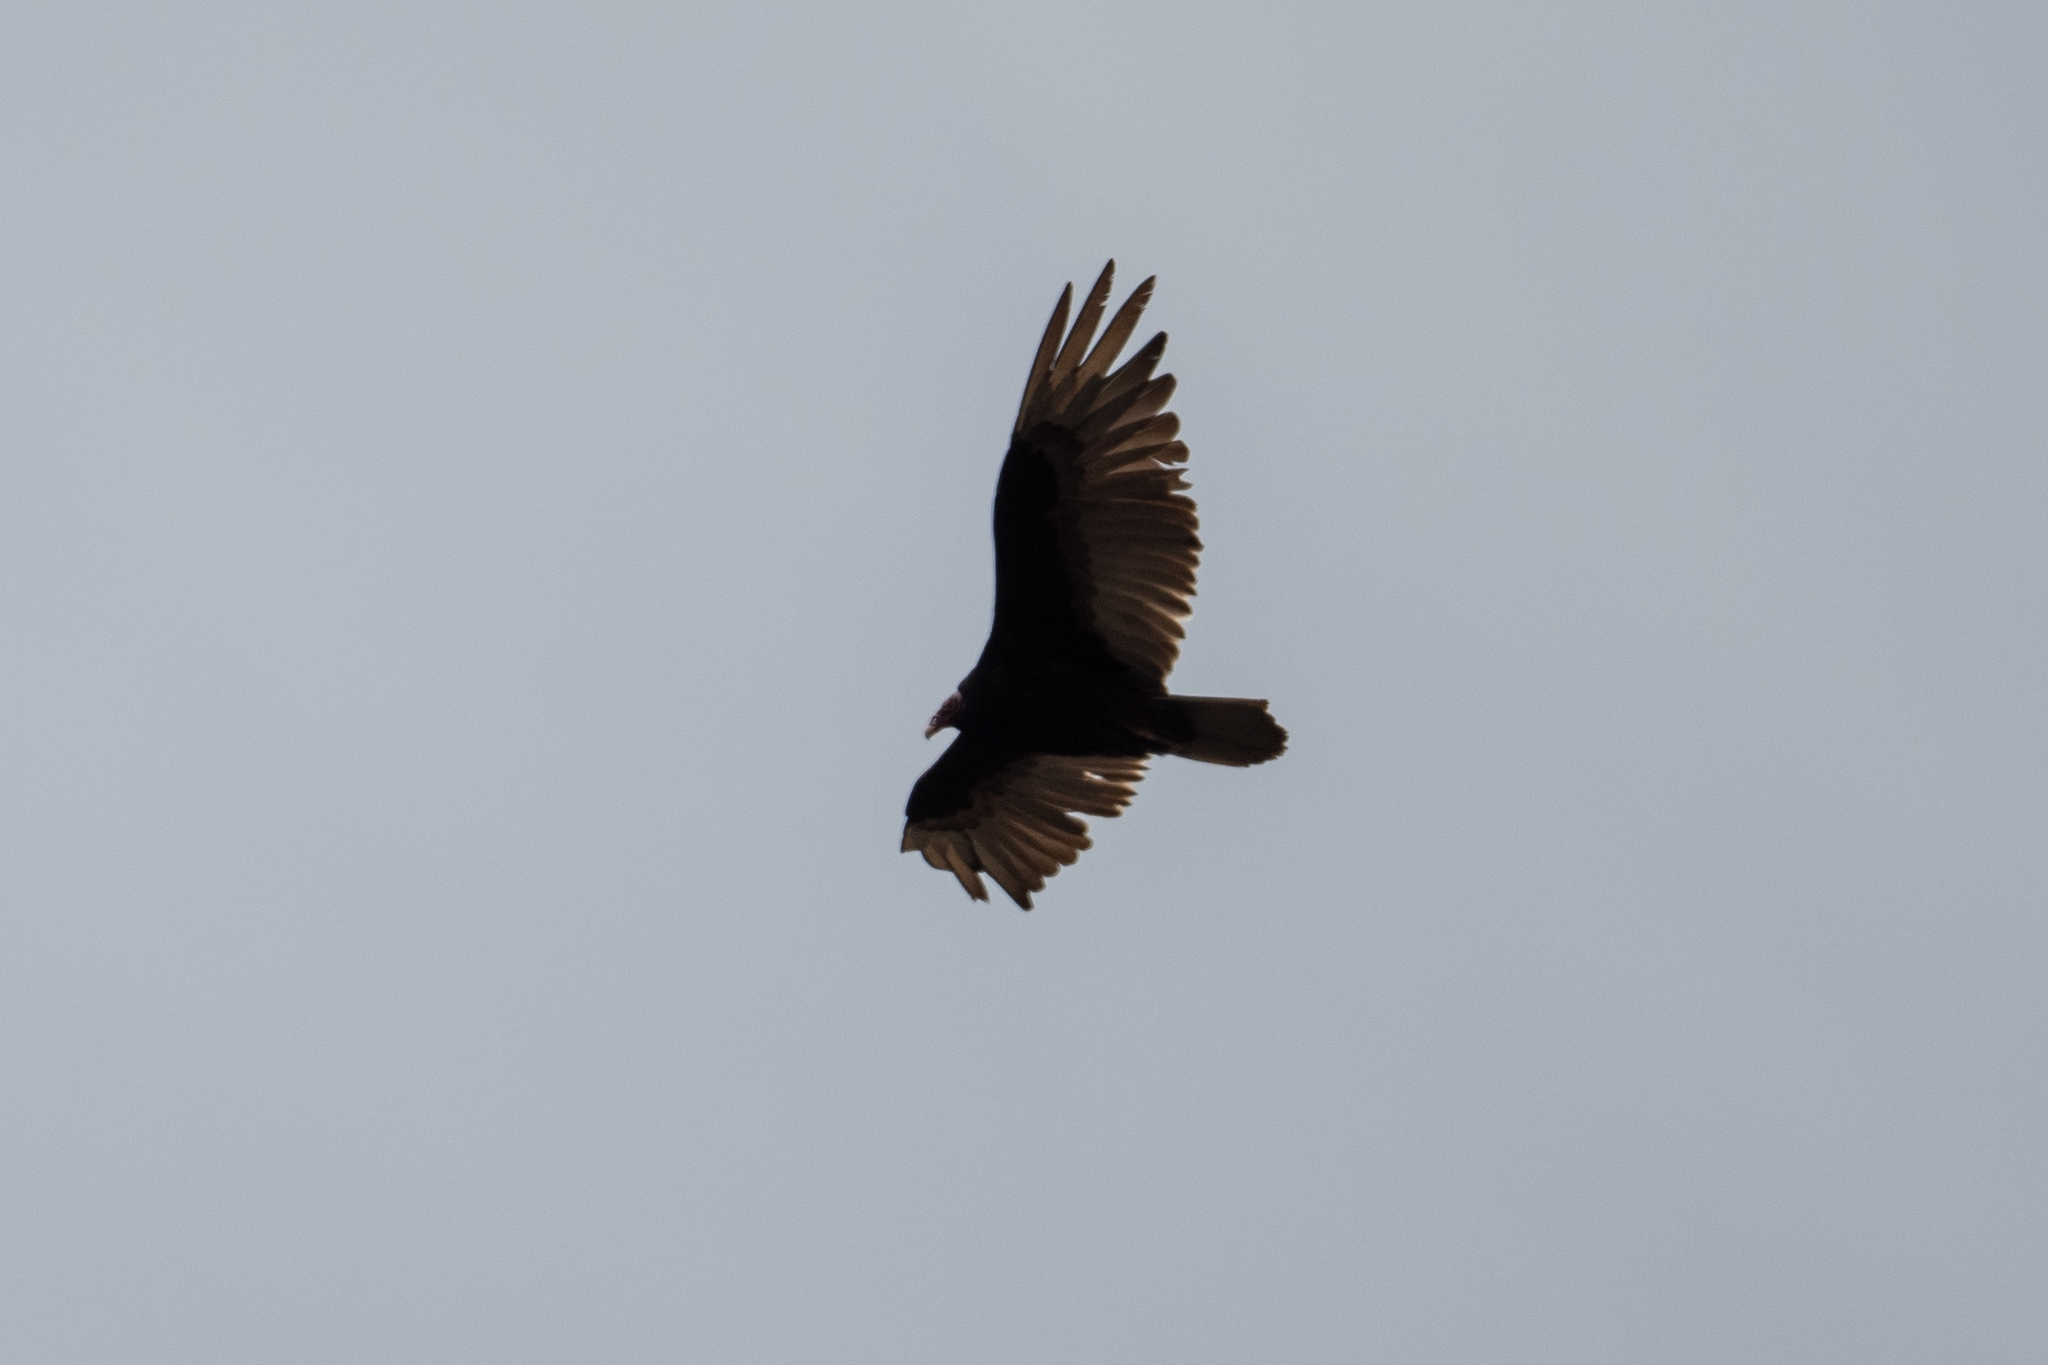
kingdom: Animalia
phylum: Chordata
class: Aves
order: Accipitriformes
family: Cathartidae
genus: Cathartes
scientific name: Cathartes aura
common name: Turkey vulture
